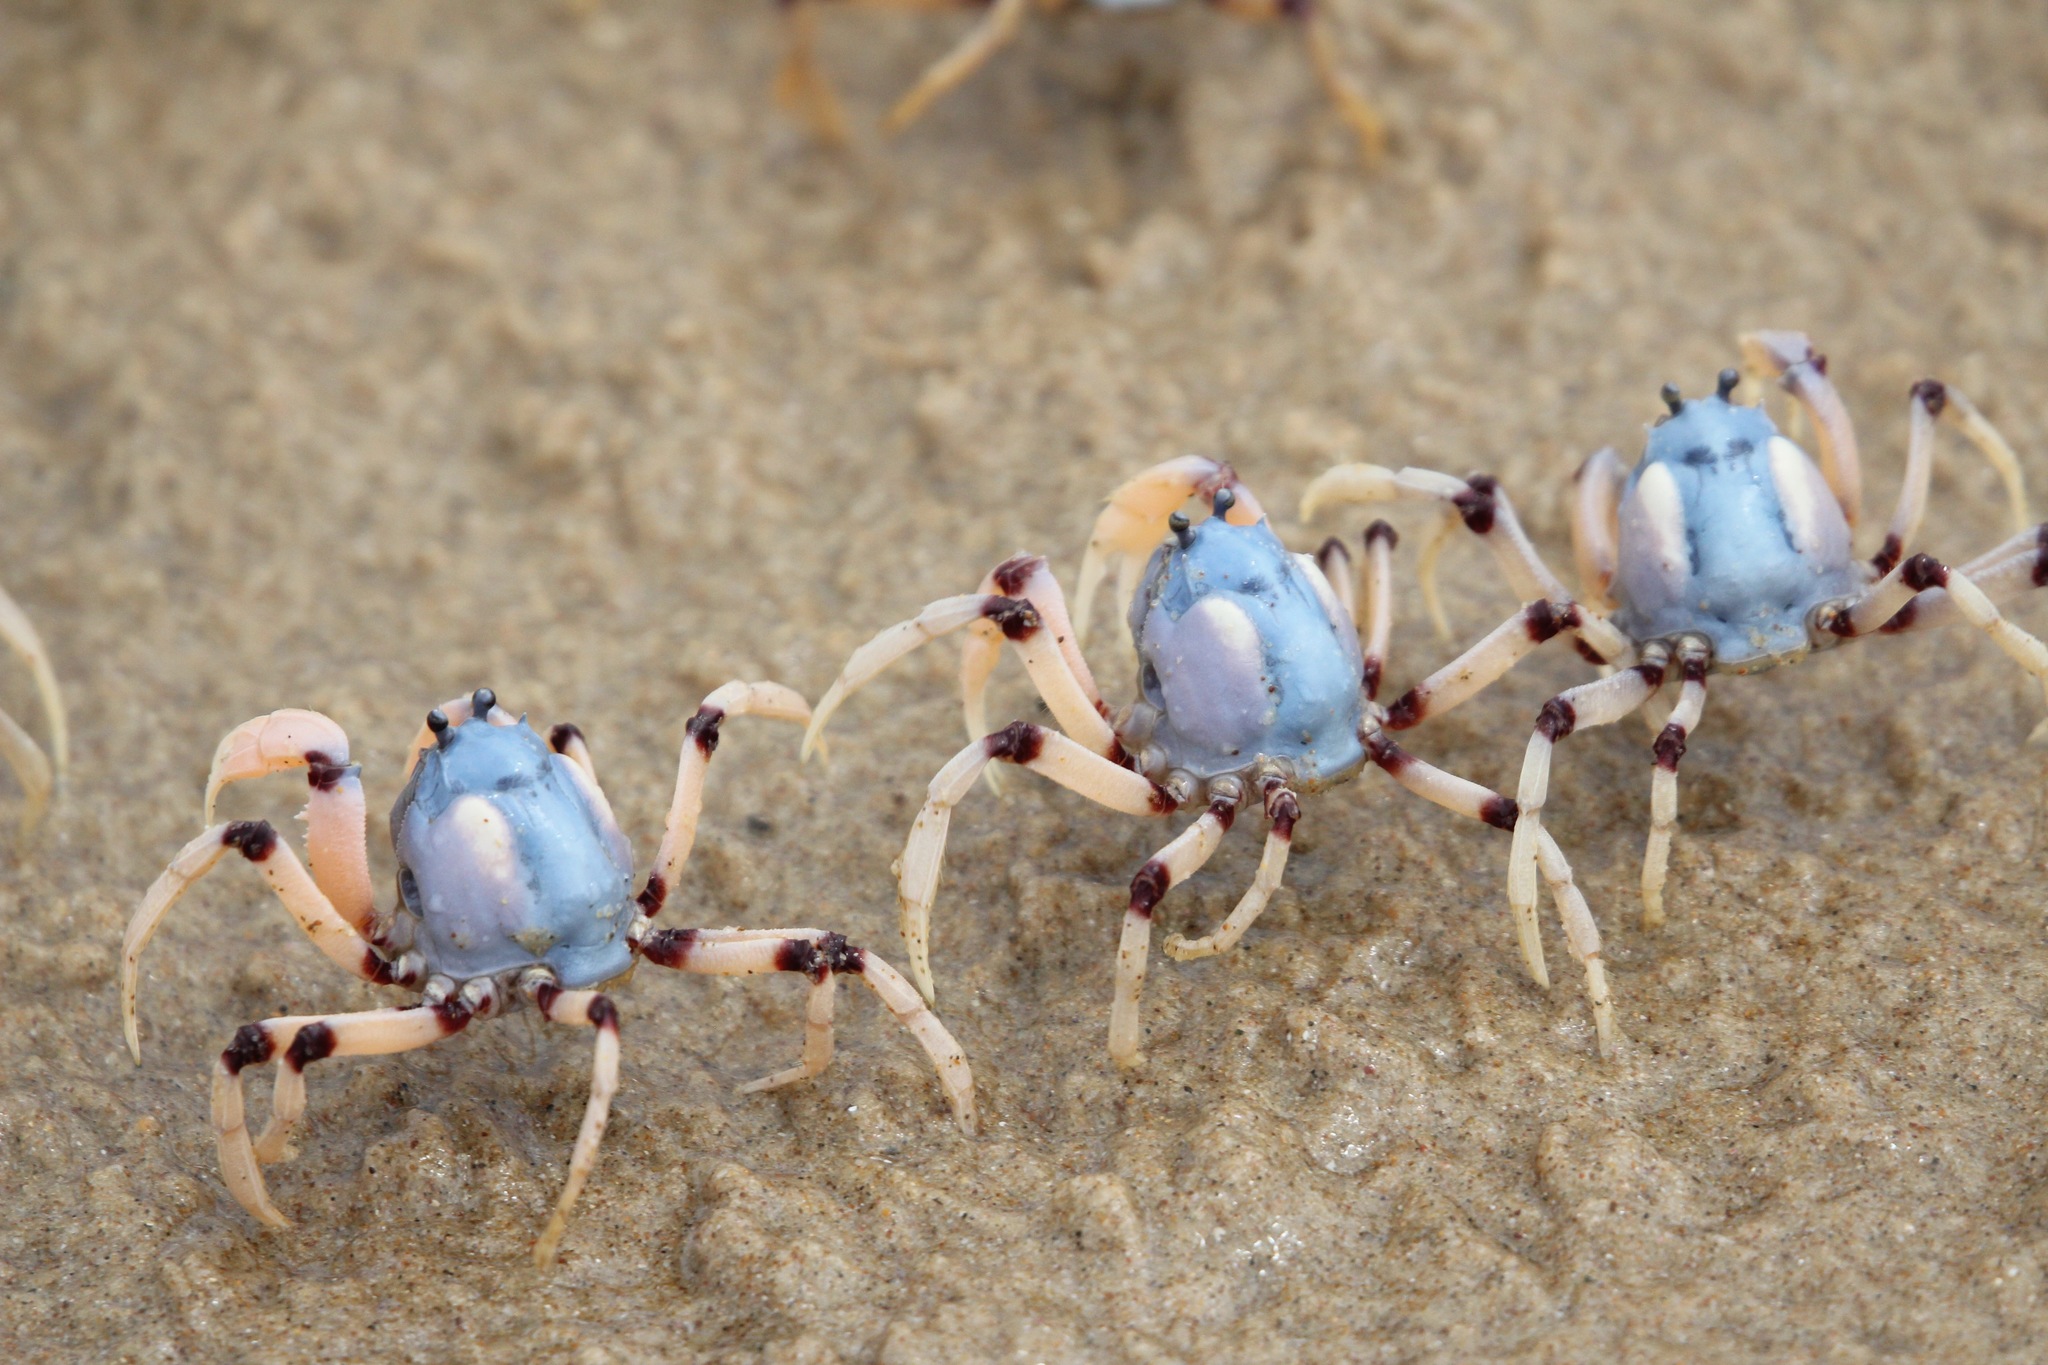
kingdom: Animalia
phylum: Arthropoda
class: Malacostraca
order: Decapoda
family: Mictyridae
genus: Mictyris
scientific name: Mictyris longicarpus
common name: Light-blue soldier crab
